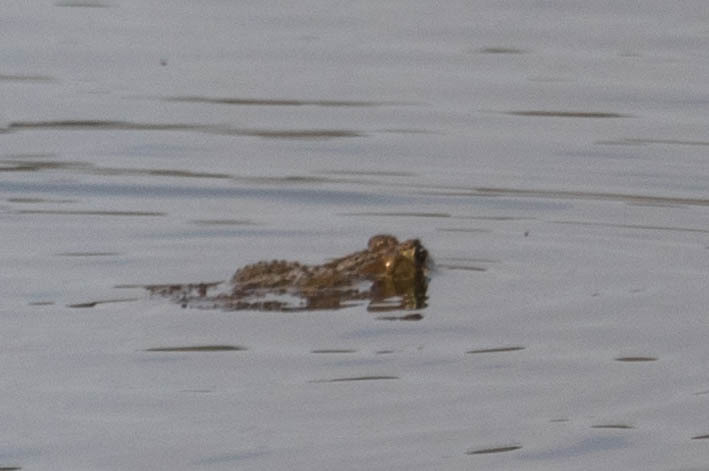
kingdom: Animalia
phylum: Chordata
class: Amphibia
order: Anura
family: Bufonidae
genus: Anaxyrus
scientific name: Anaxyrus americanus
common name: American toad
